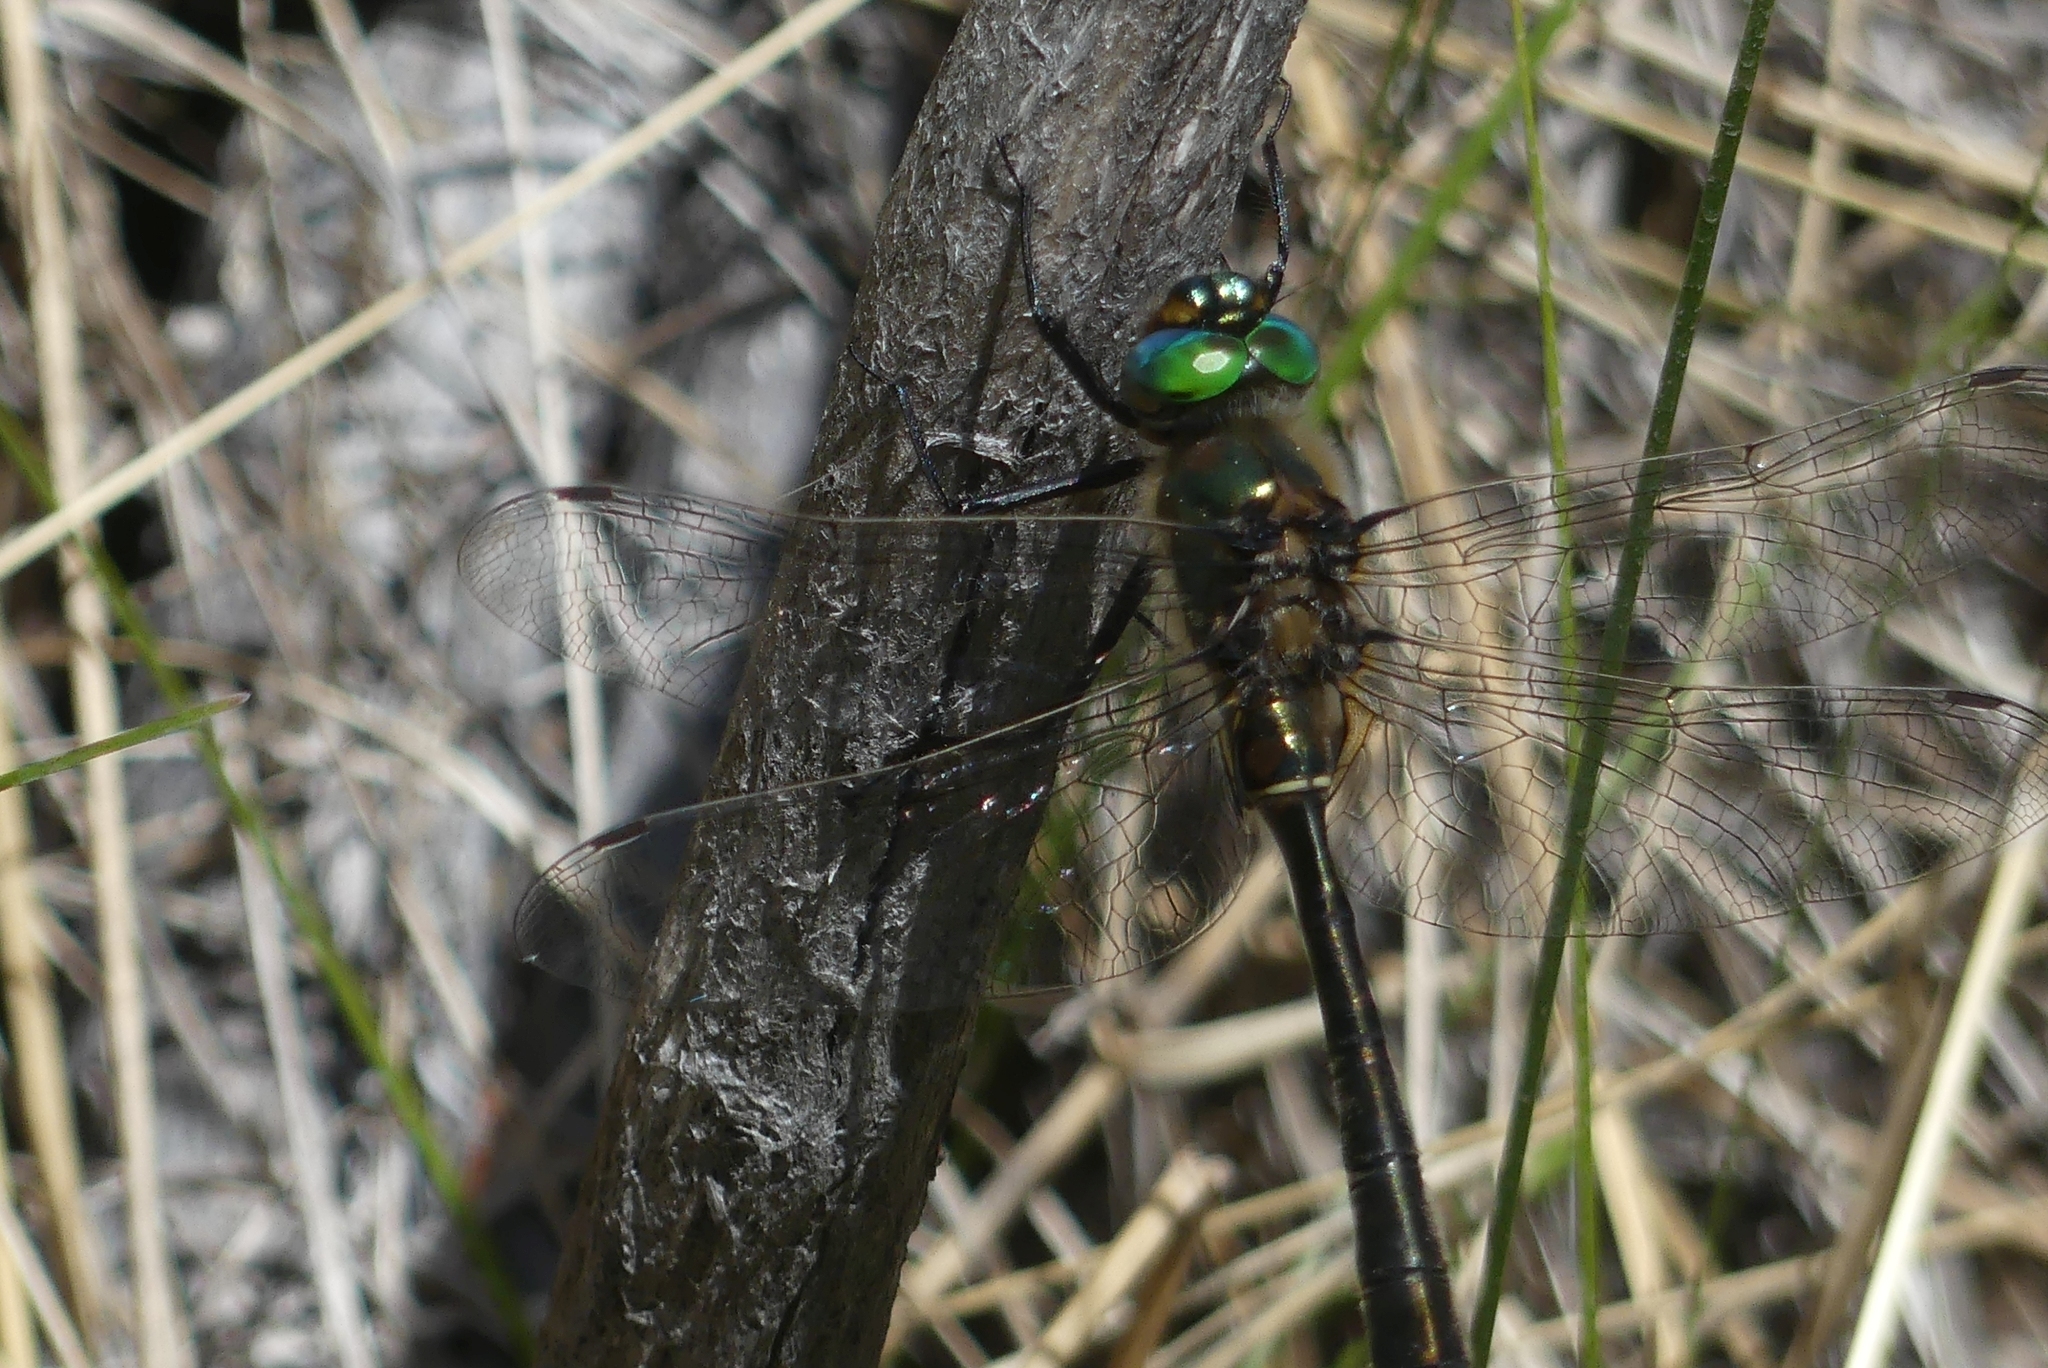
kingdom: Animalia
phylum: Arthropoda
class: Insecta
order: Odonata
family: Corduliidae
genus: Cordulia
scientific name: Cordulia shurtleffii
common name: American emerald
